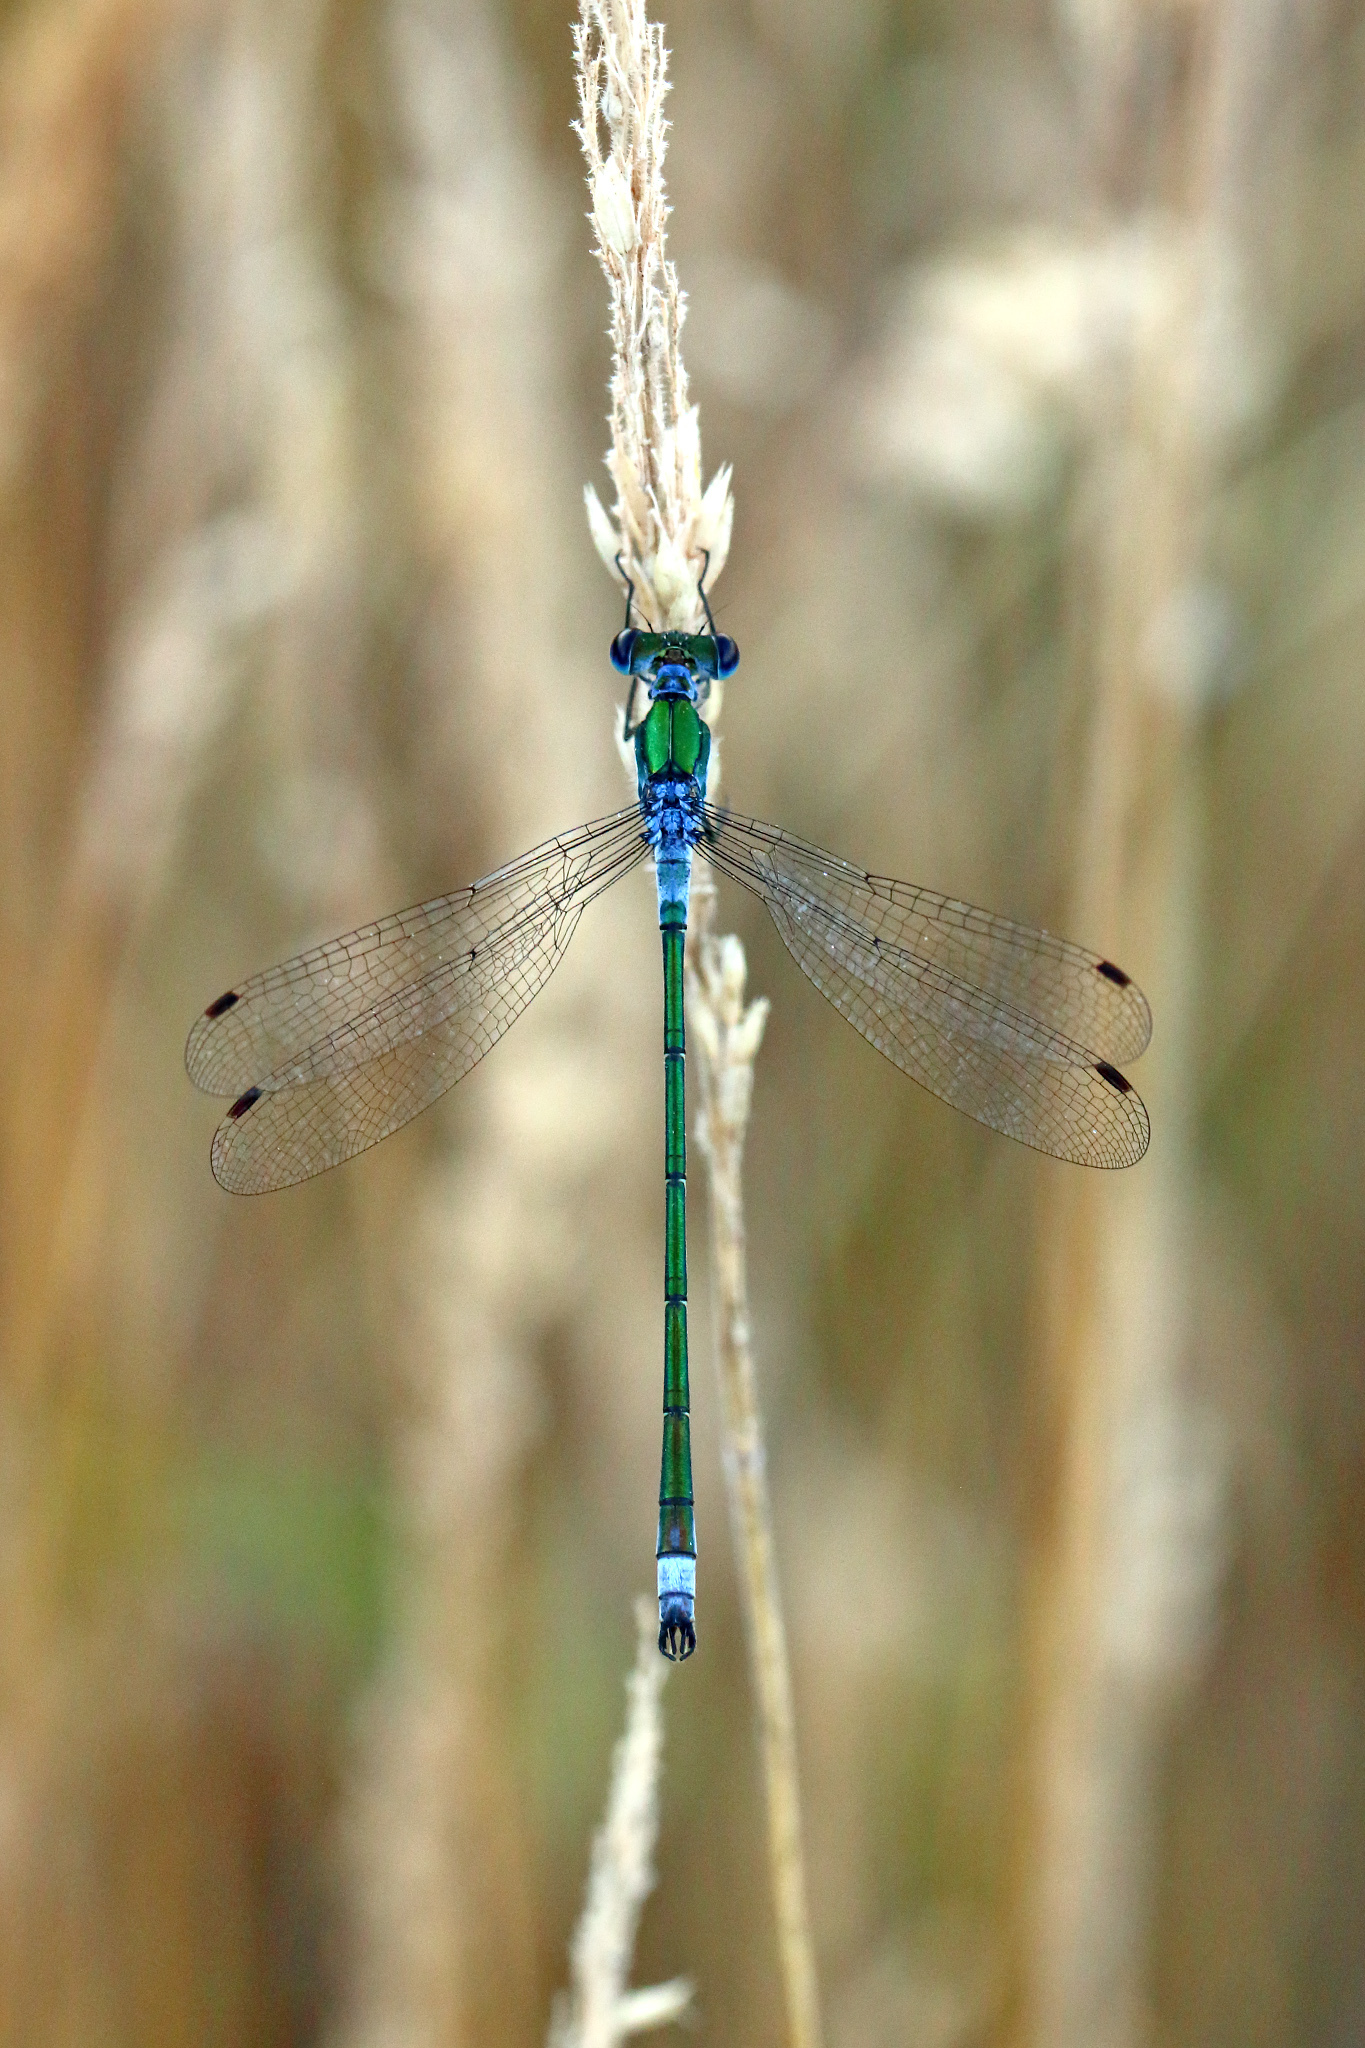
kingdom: Animalia
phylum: Arthropoda
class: Insecta
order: Odonata
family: Lestidae
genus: Lestes
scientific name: Lestes sponsa
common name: Common spreadwing
